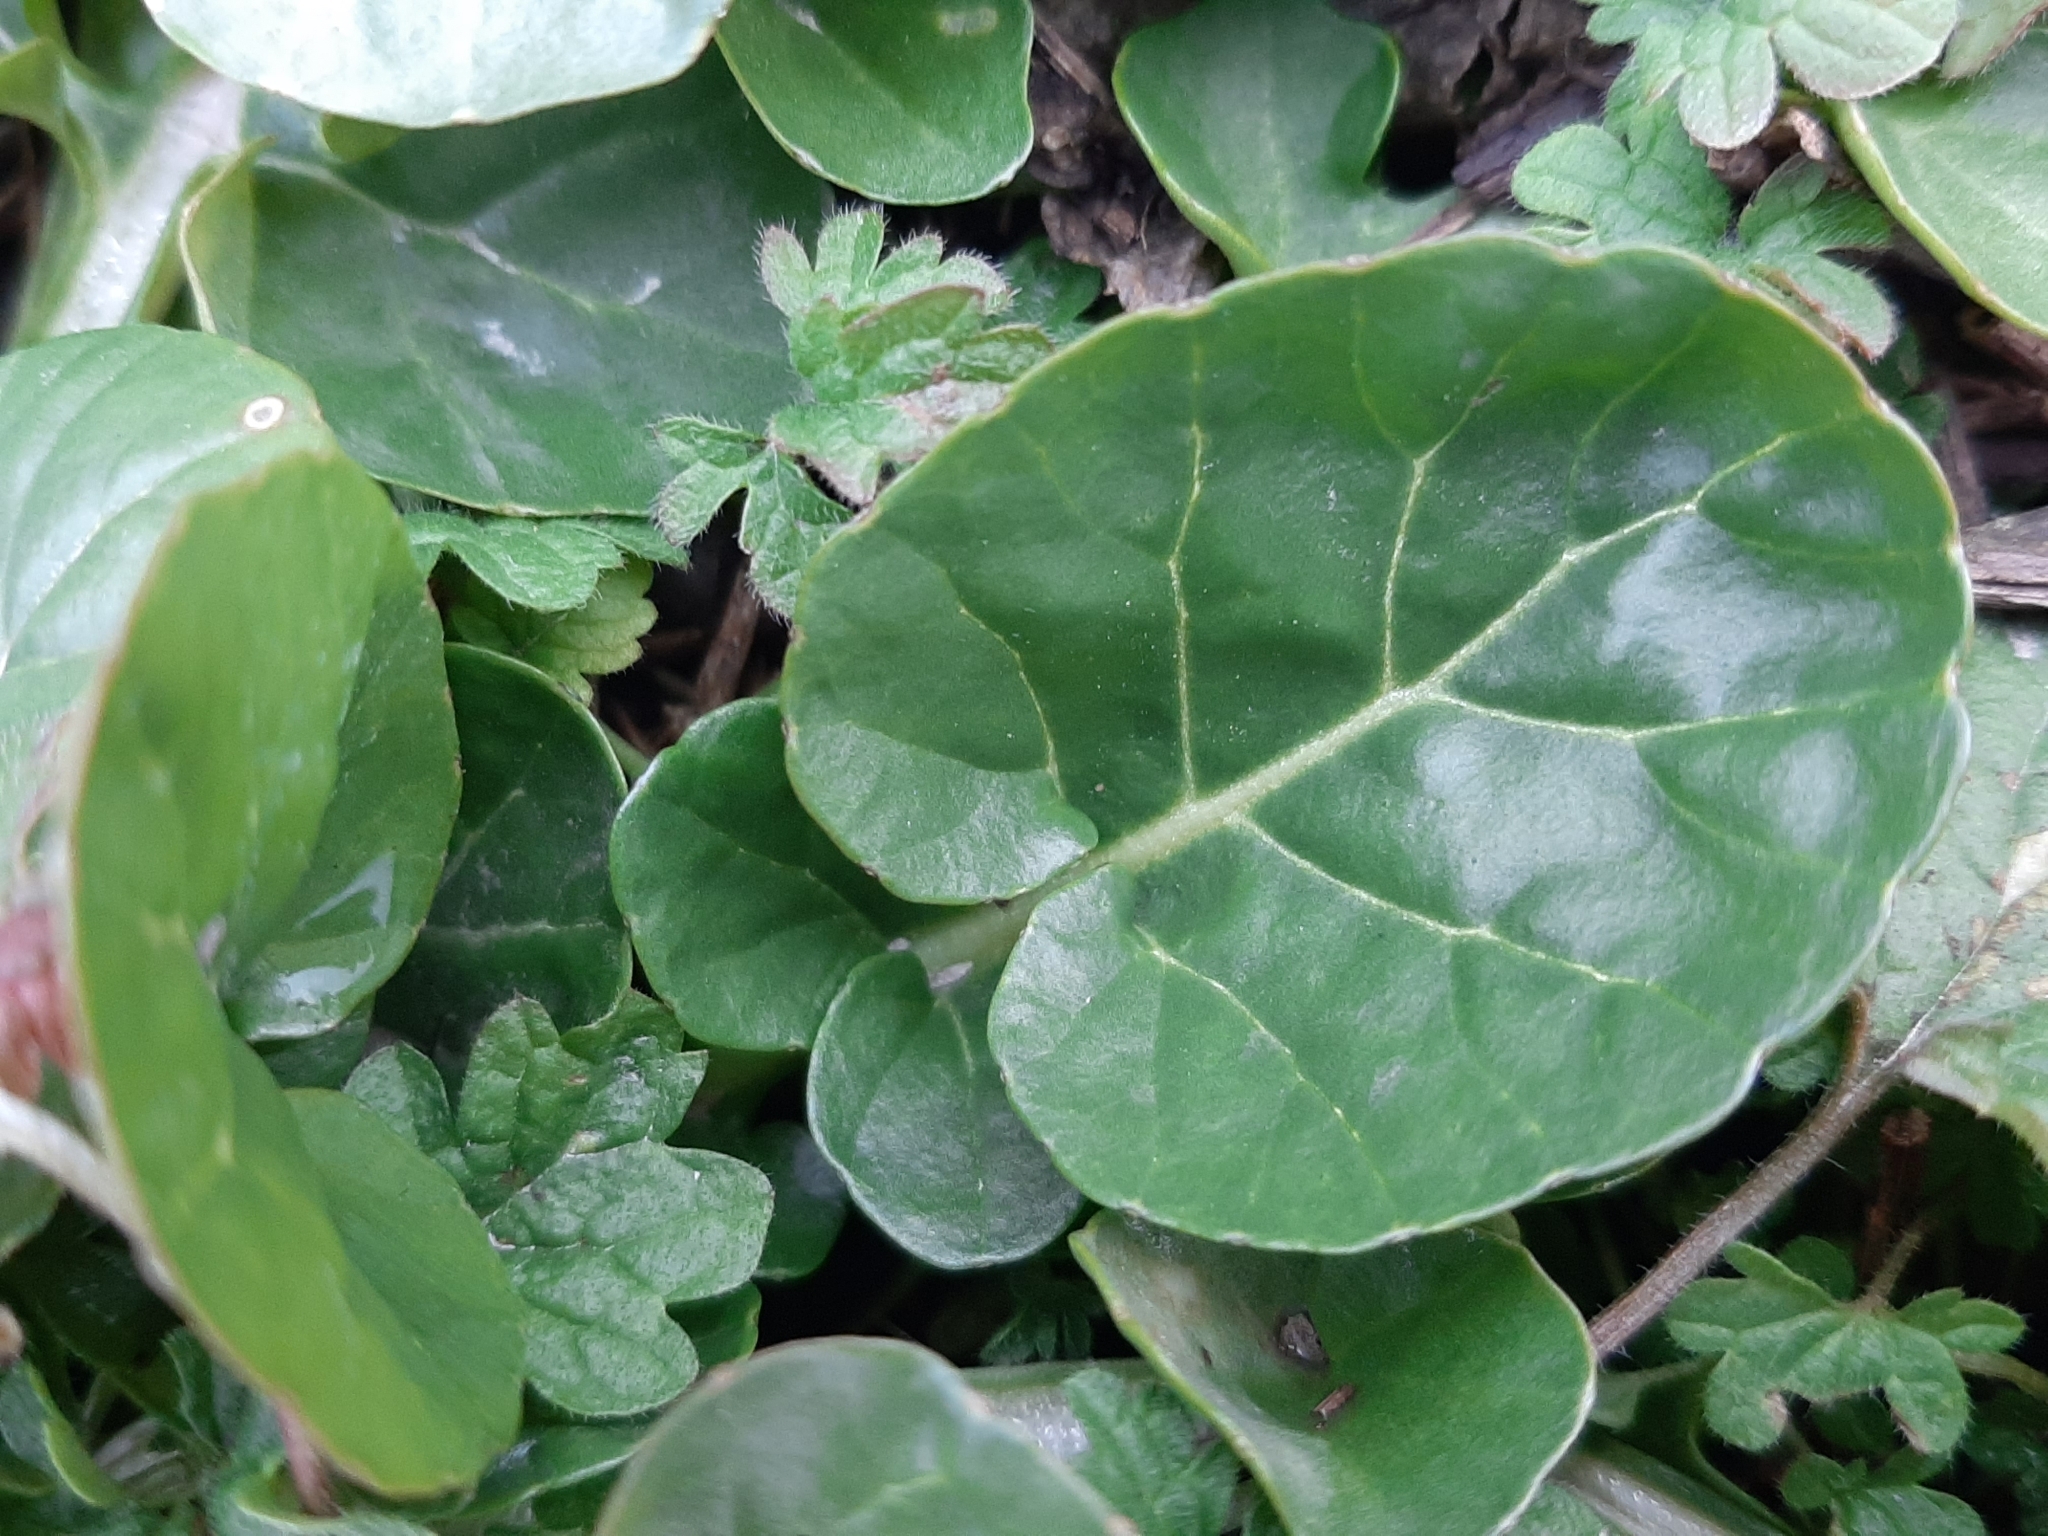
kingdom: Plantae
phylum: Tracheophyta
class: Magnoliopsida
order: Brassicales
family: Brassicaceae
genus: Barbarea
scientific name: Barbarea vulgaris
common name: Cressy-greens
